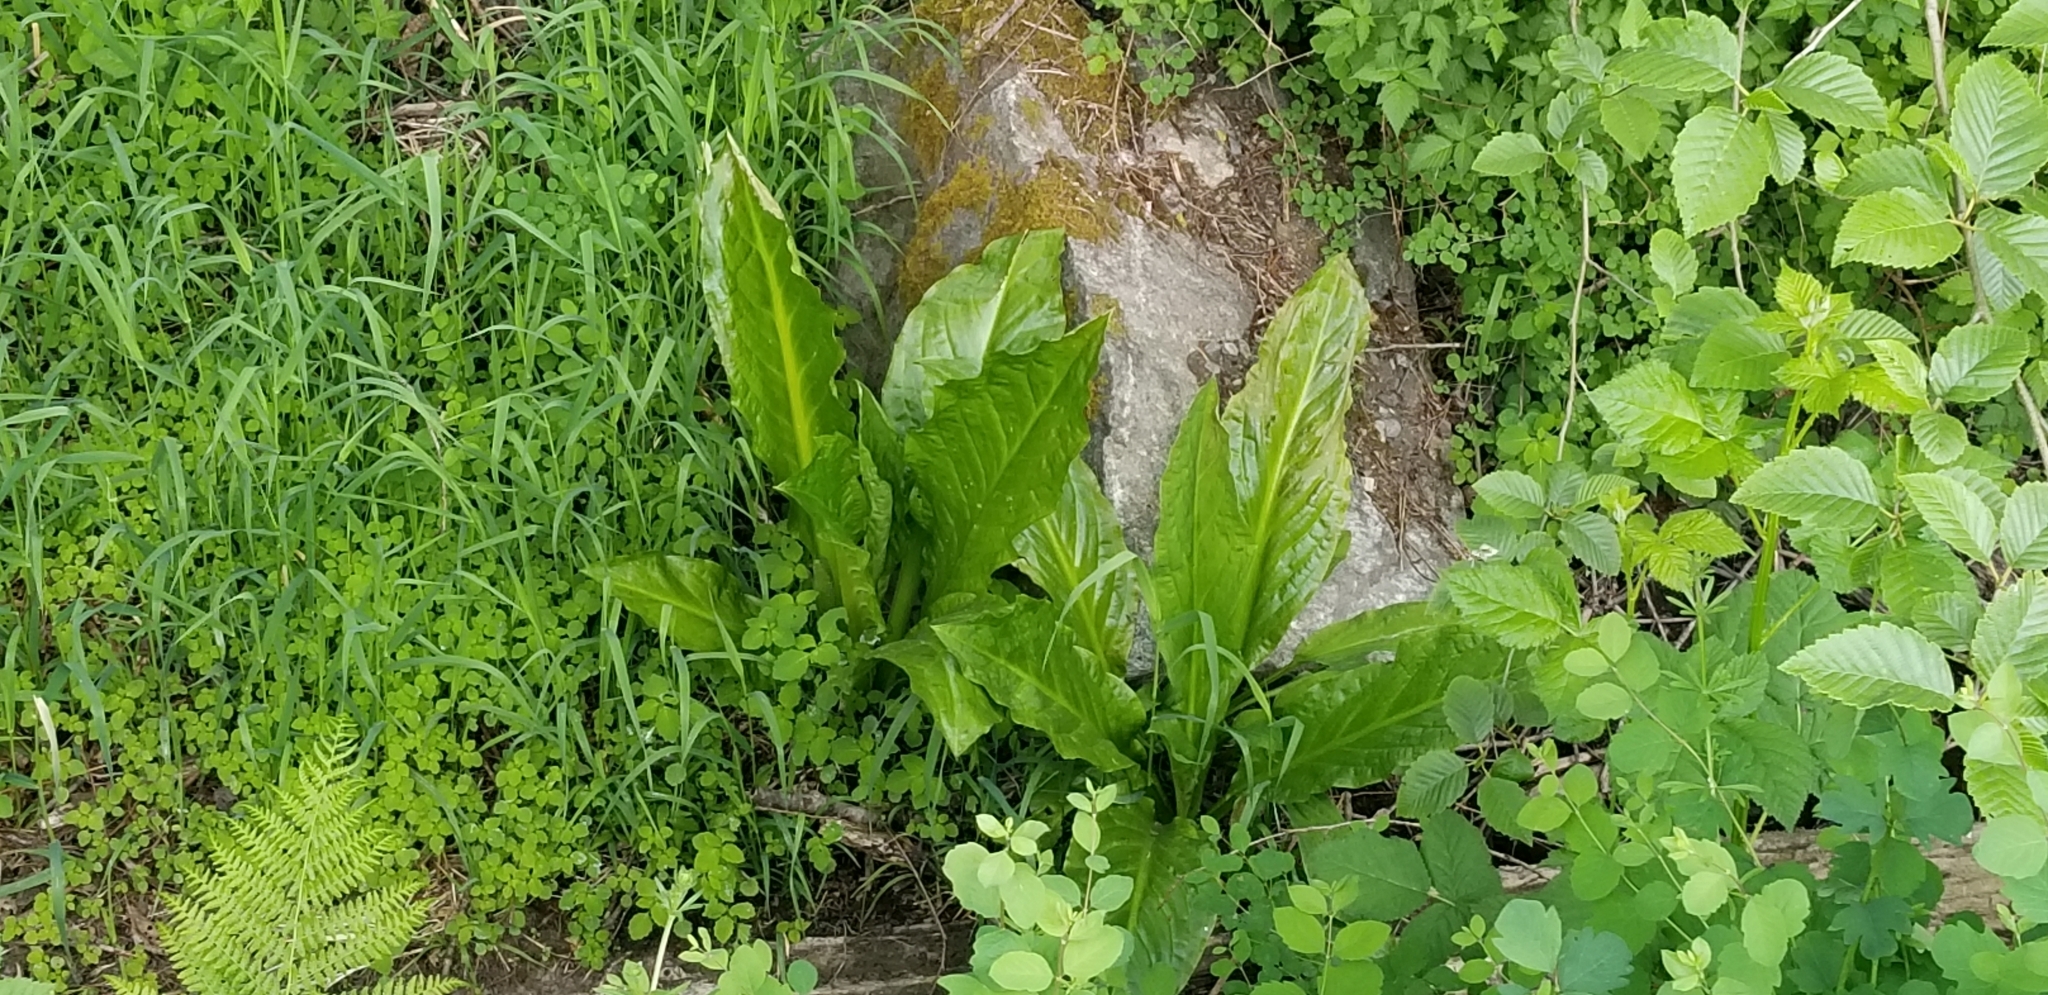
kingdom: Plantae
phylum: Tracheophyta
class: Liliopsida
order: Alismatales
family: Araceae
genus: Lysichiton
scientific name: Lysichiton americanus
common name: American skunk cabbage
